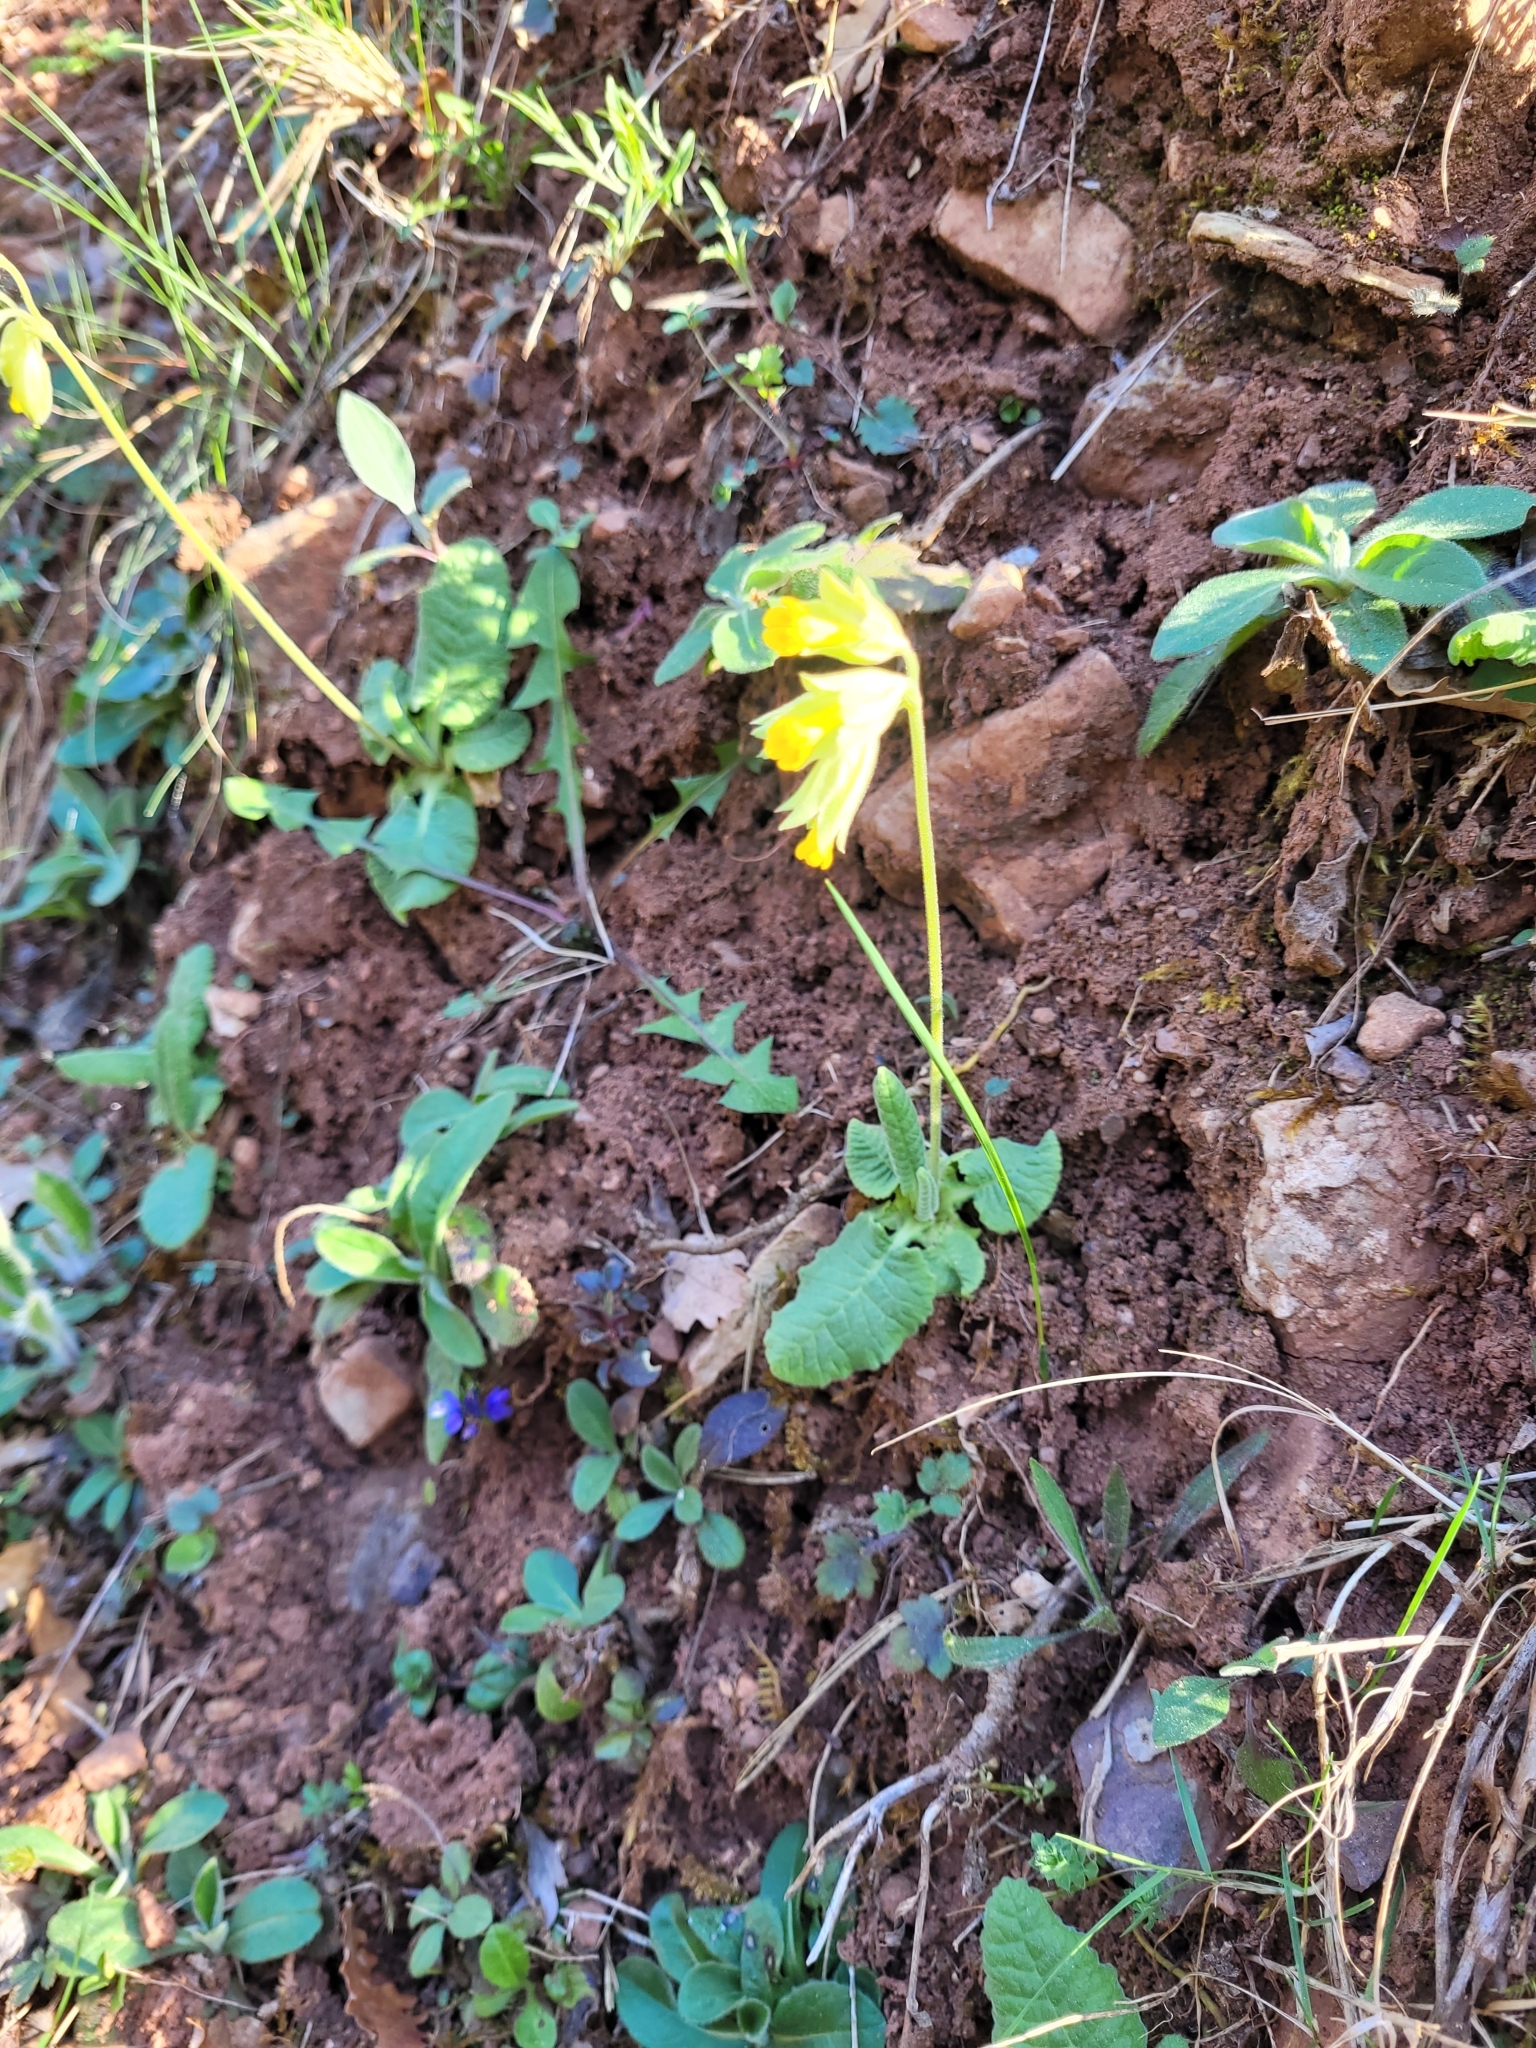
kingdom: Plantae
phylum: Tracheophyta
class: Magnoliopsida
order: Ericales
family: Primulaceae
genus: Primula
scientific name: Primula veris
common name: Cowslip
